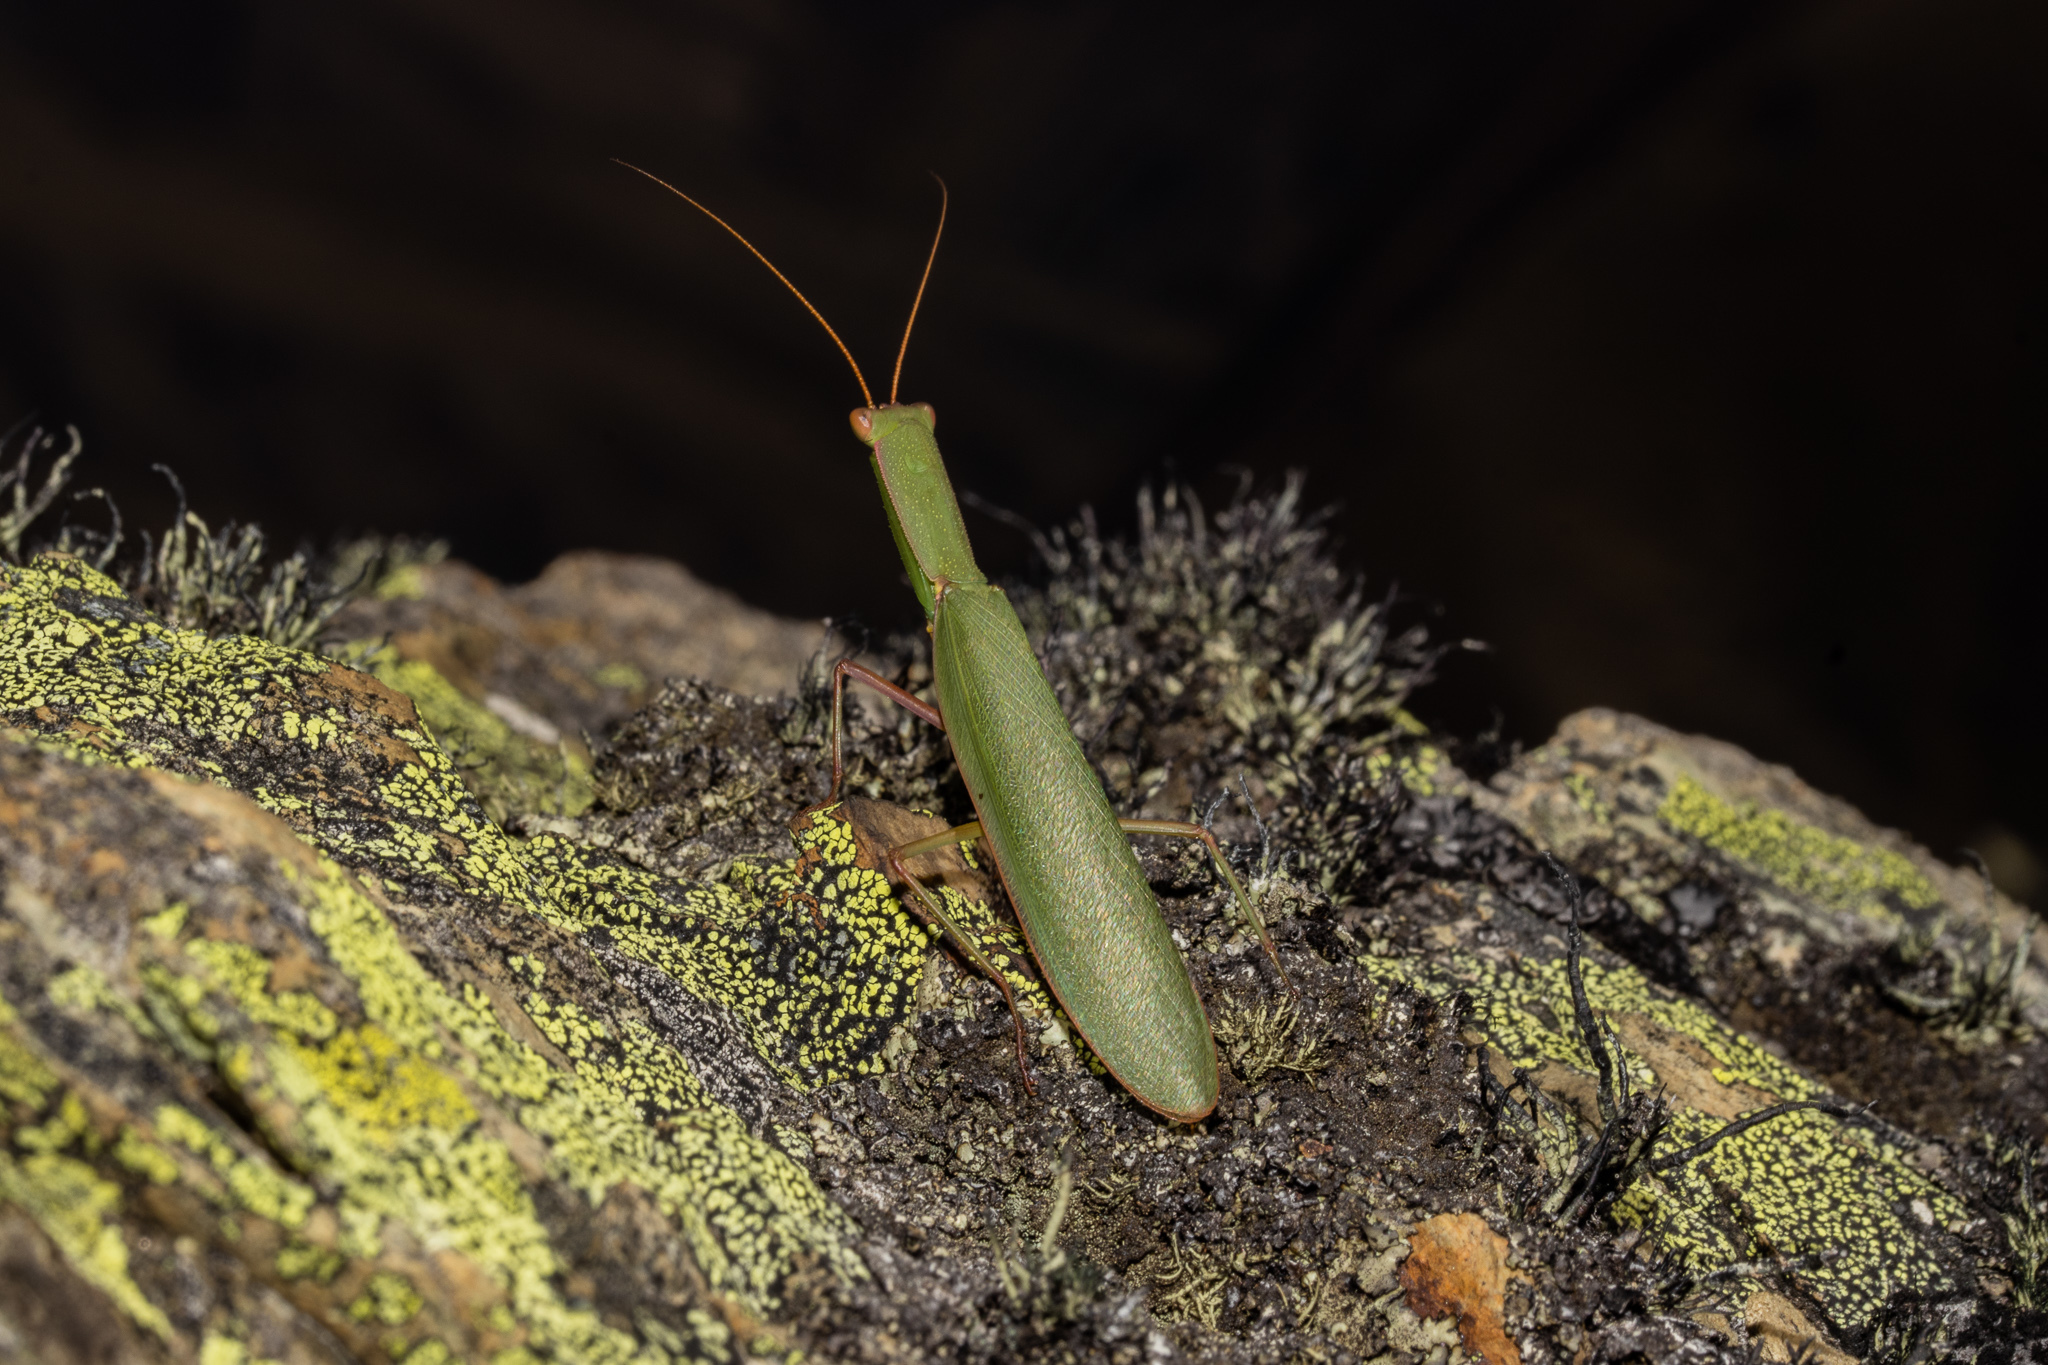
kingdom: Animalia
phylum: Arthropoda
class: Insecta
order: Mantodea
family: Mantidae
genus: Orthodera
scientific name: Orthodera novaezealandiae
